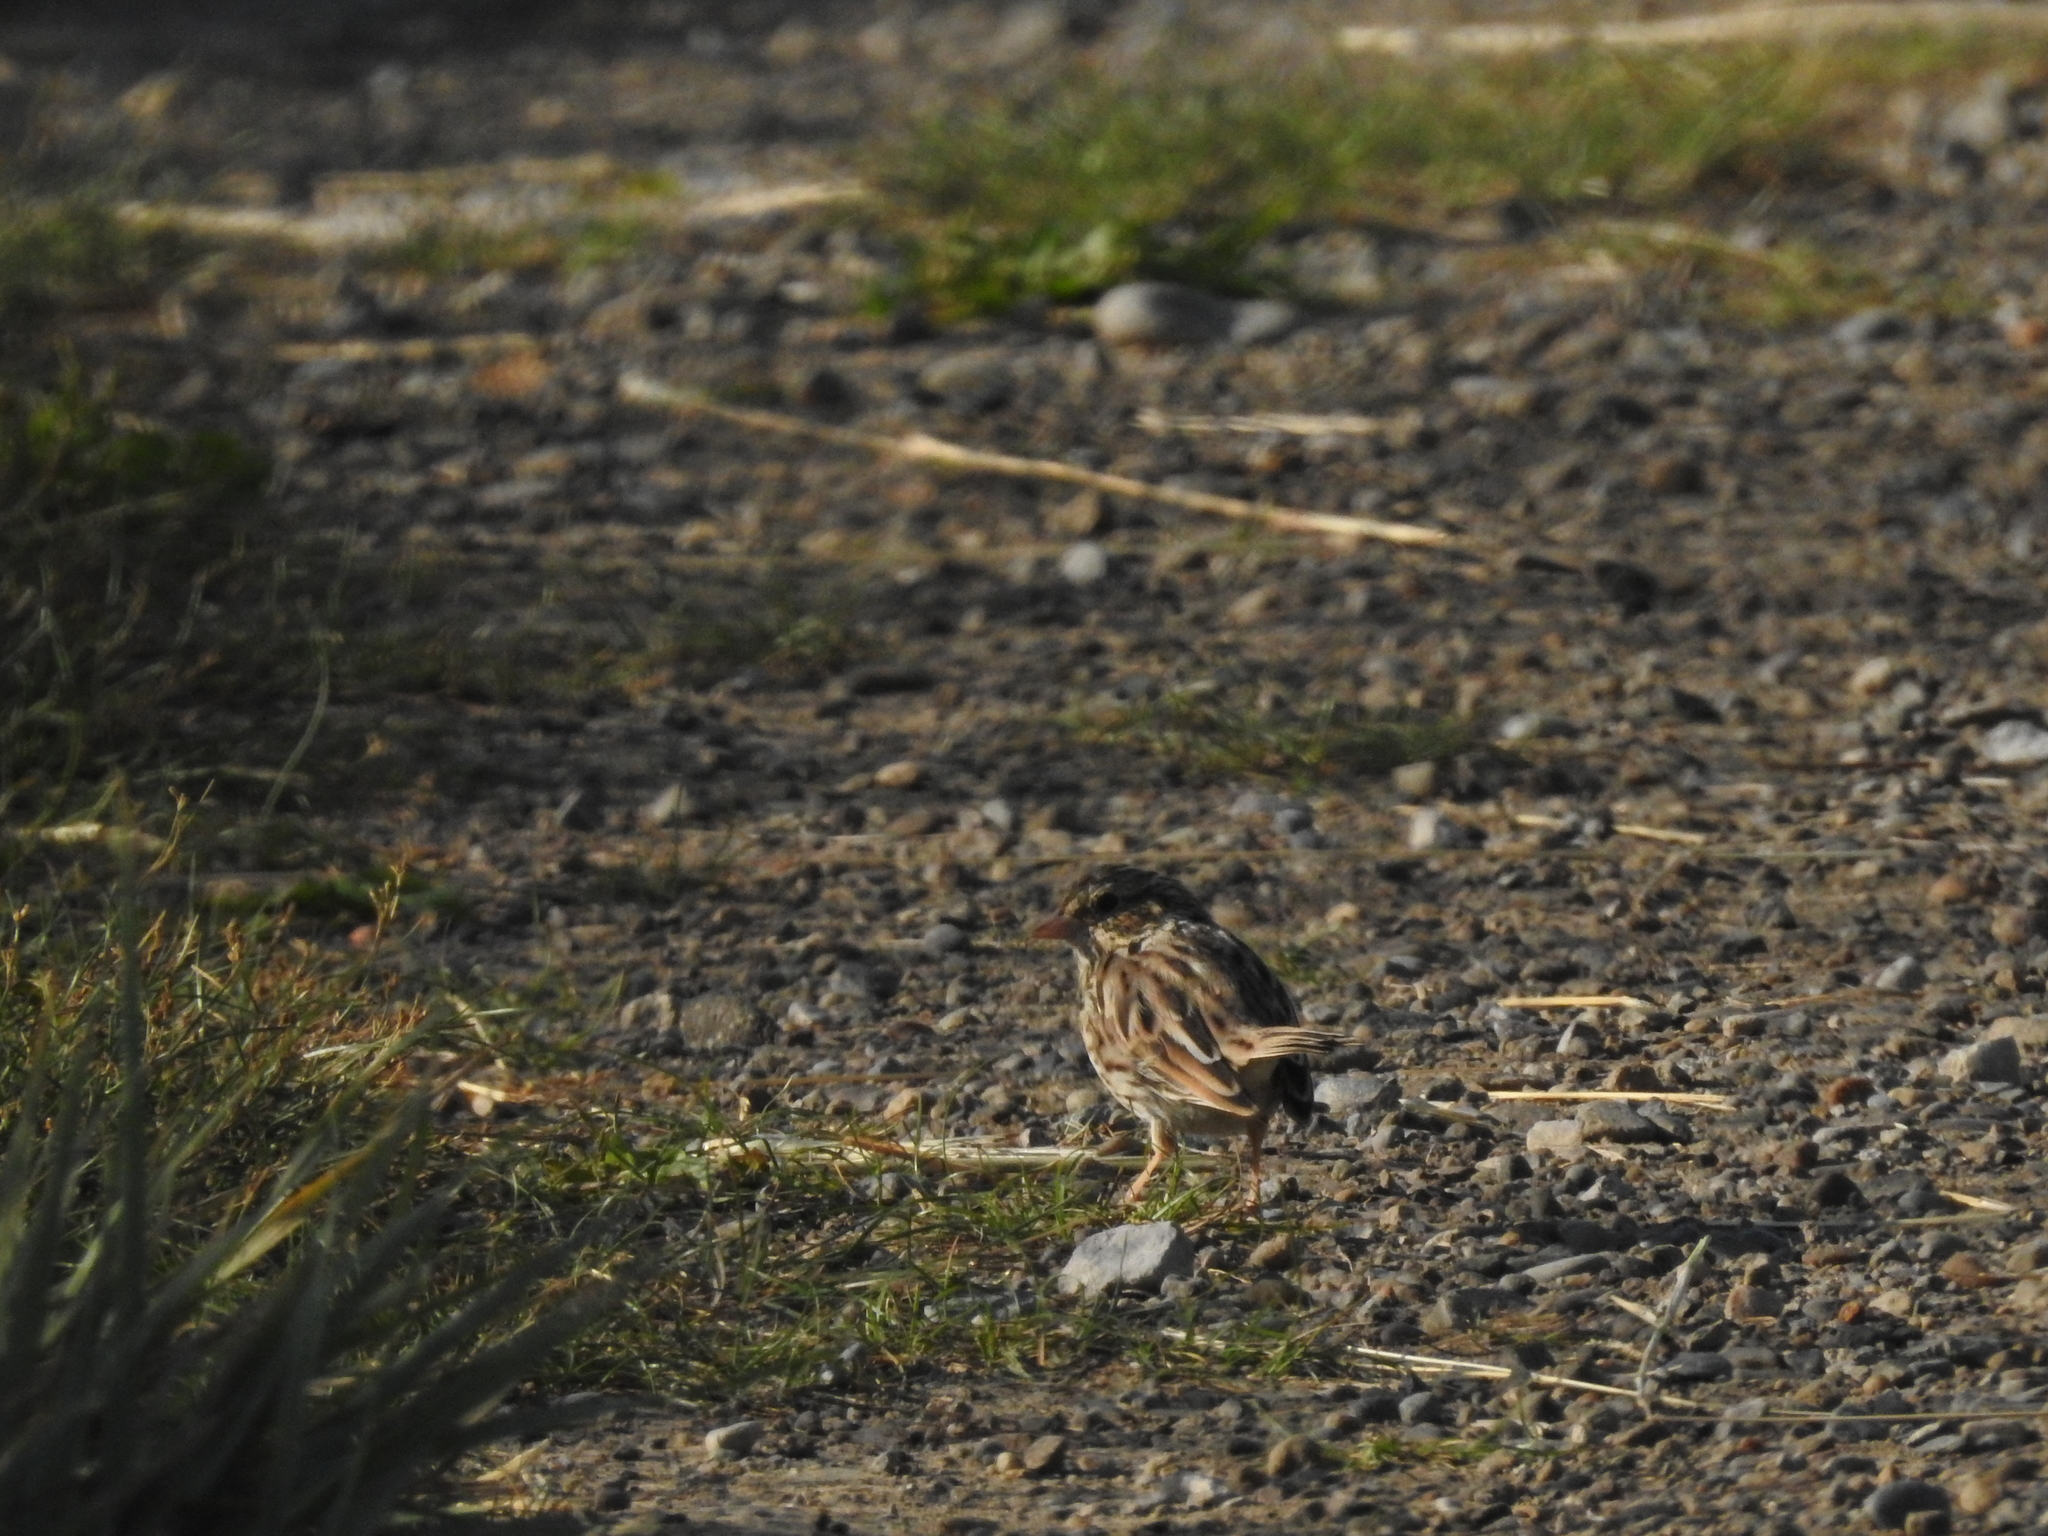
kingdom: Animalia
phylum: Chordata
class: Aves
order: Passeriformes
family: Passerellidae
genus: Passerculus
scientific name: Passerculus sandwichensis
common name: Savannah sparrow
